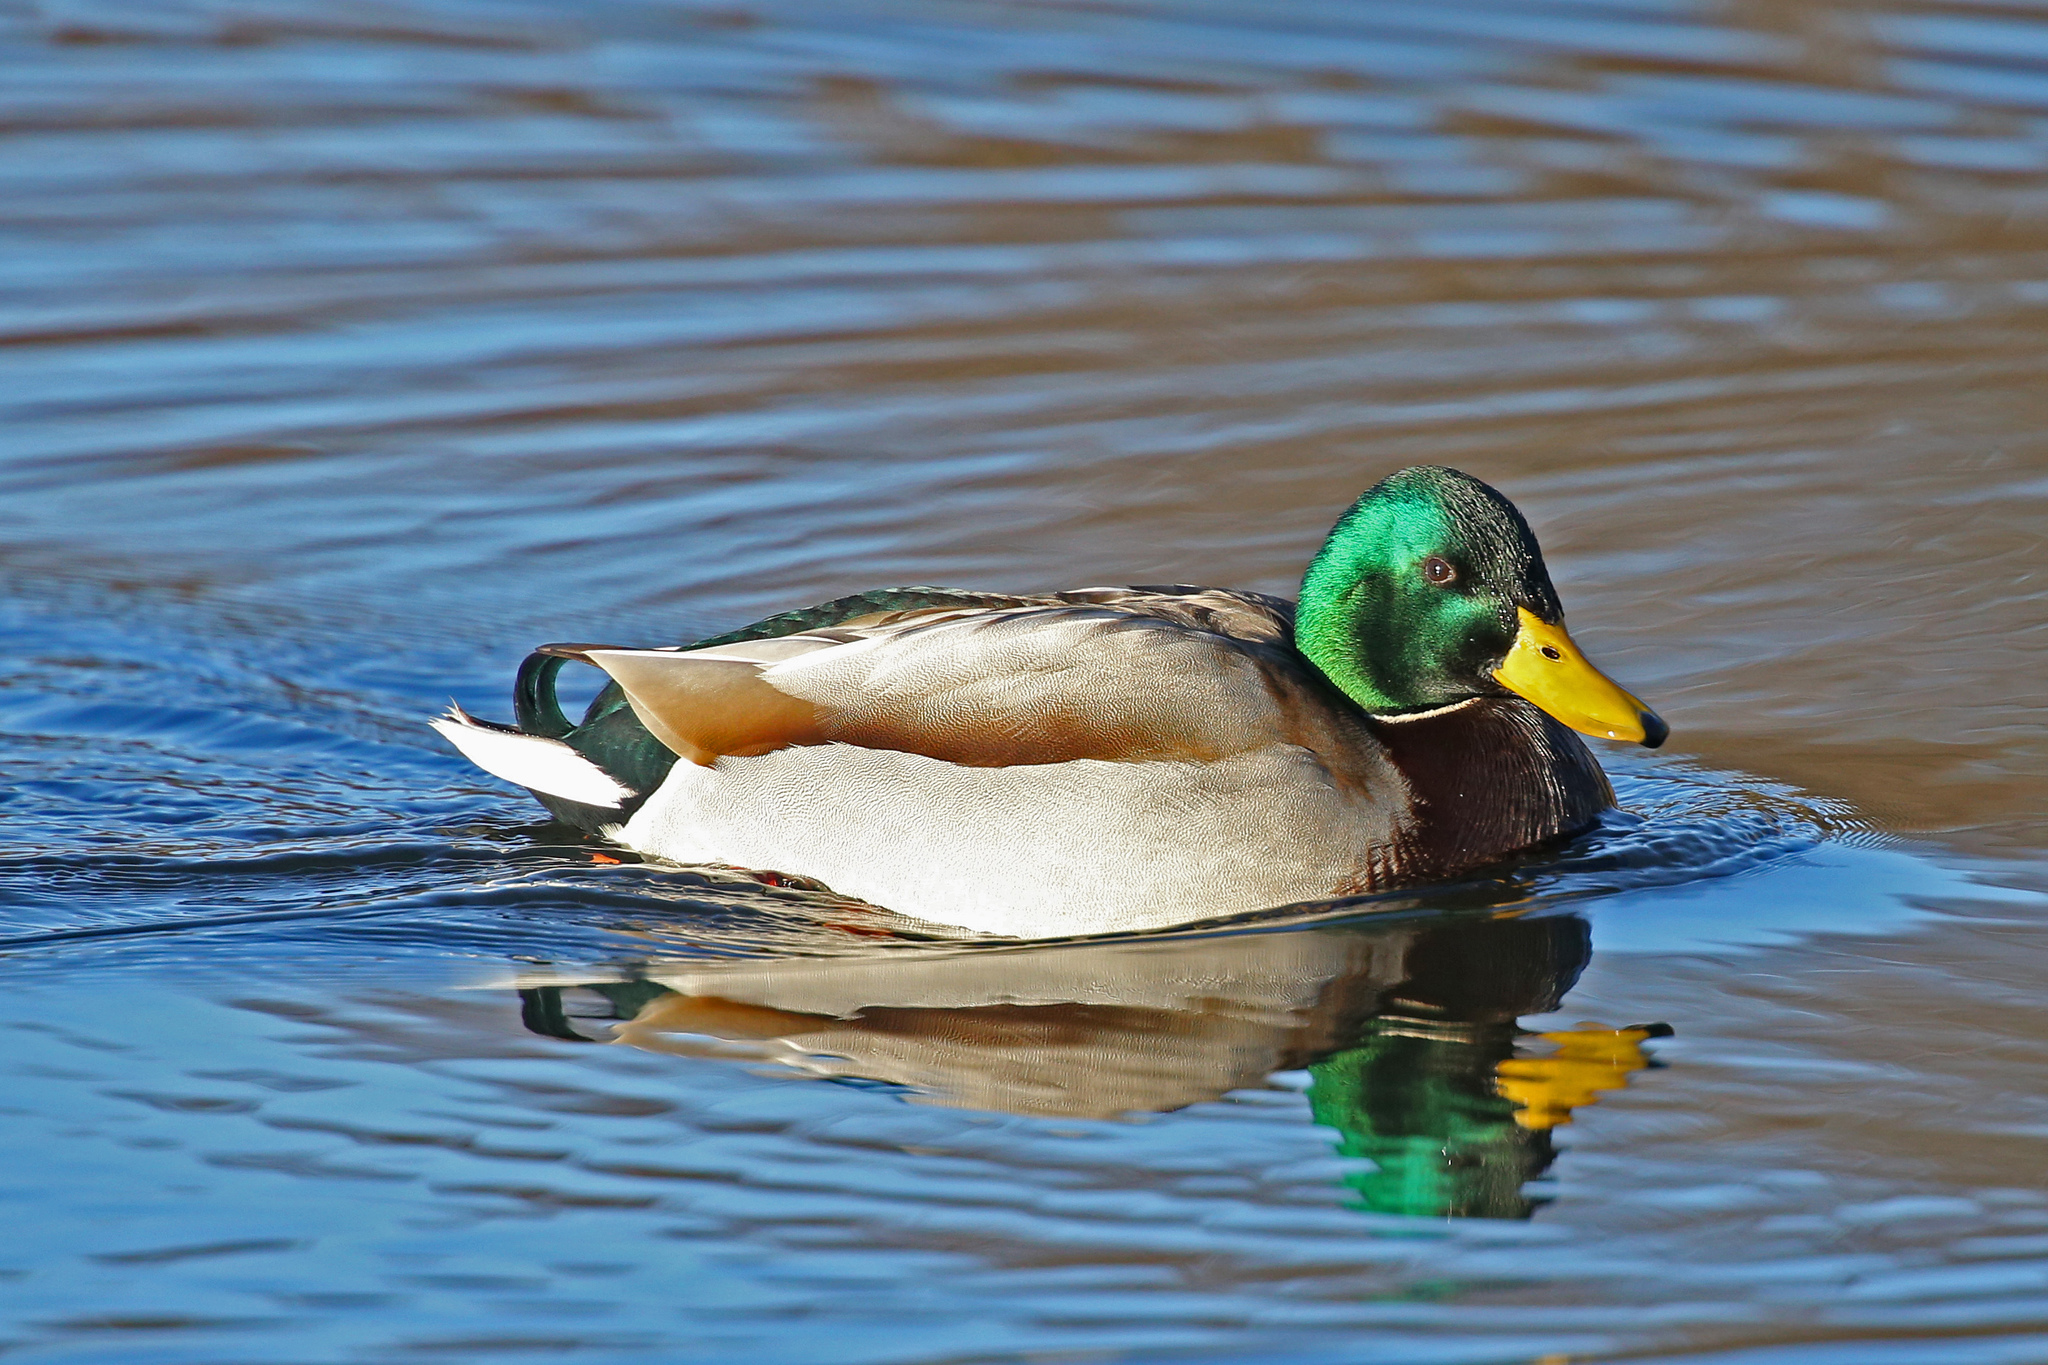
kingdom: Animalia
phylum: Chordata
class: Aves
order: Anseriformes
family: Anatidae
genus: Anas
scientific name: Anas platyrhynchos
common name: Mallard
